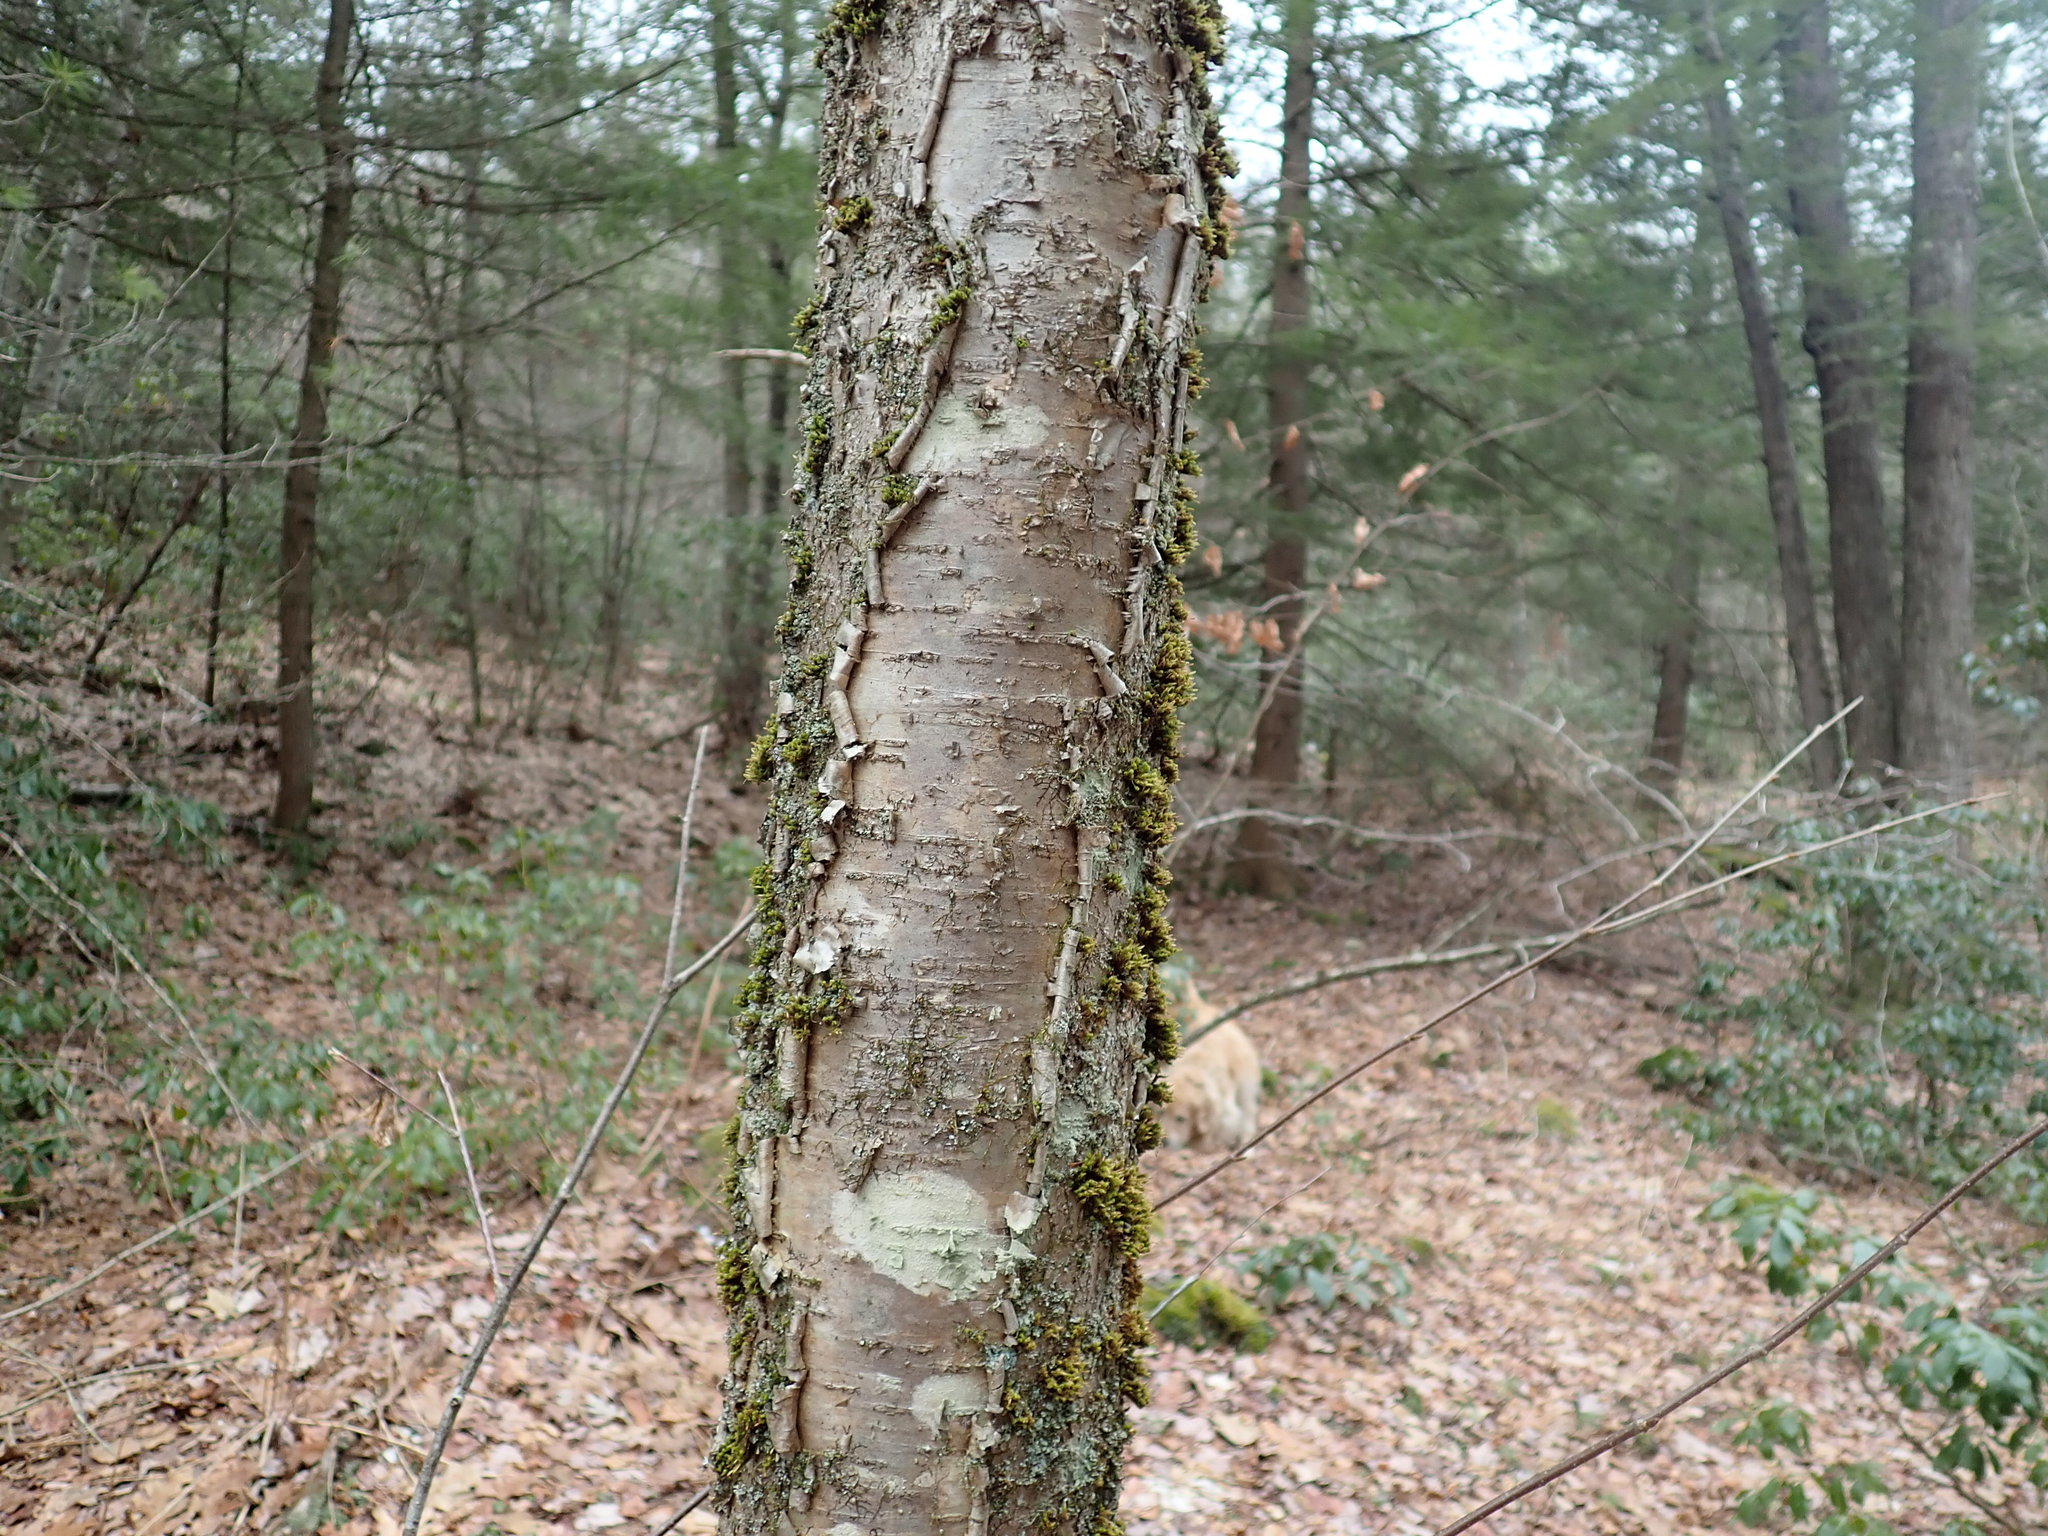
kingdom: Plantae
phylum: Tracheophyta
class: Magnoliopsida
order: Fagales
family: Betulaceae
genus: Betula
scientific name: Betula alleghaniensis
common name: Yellow birch
